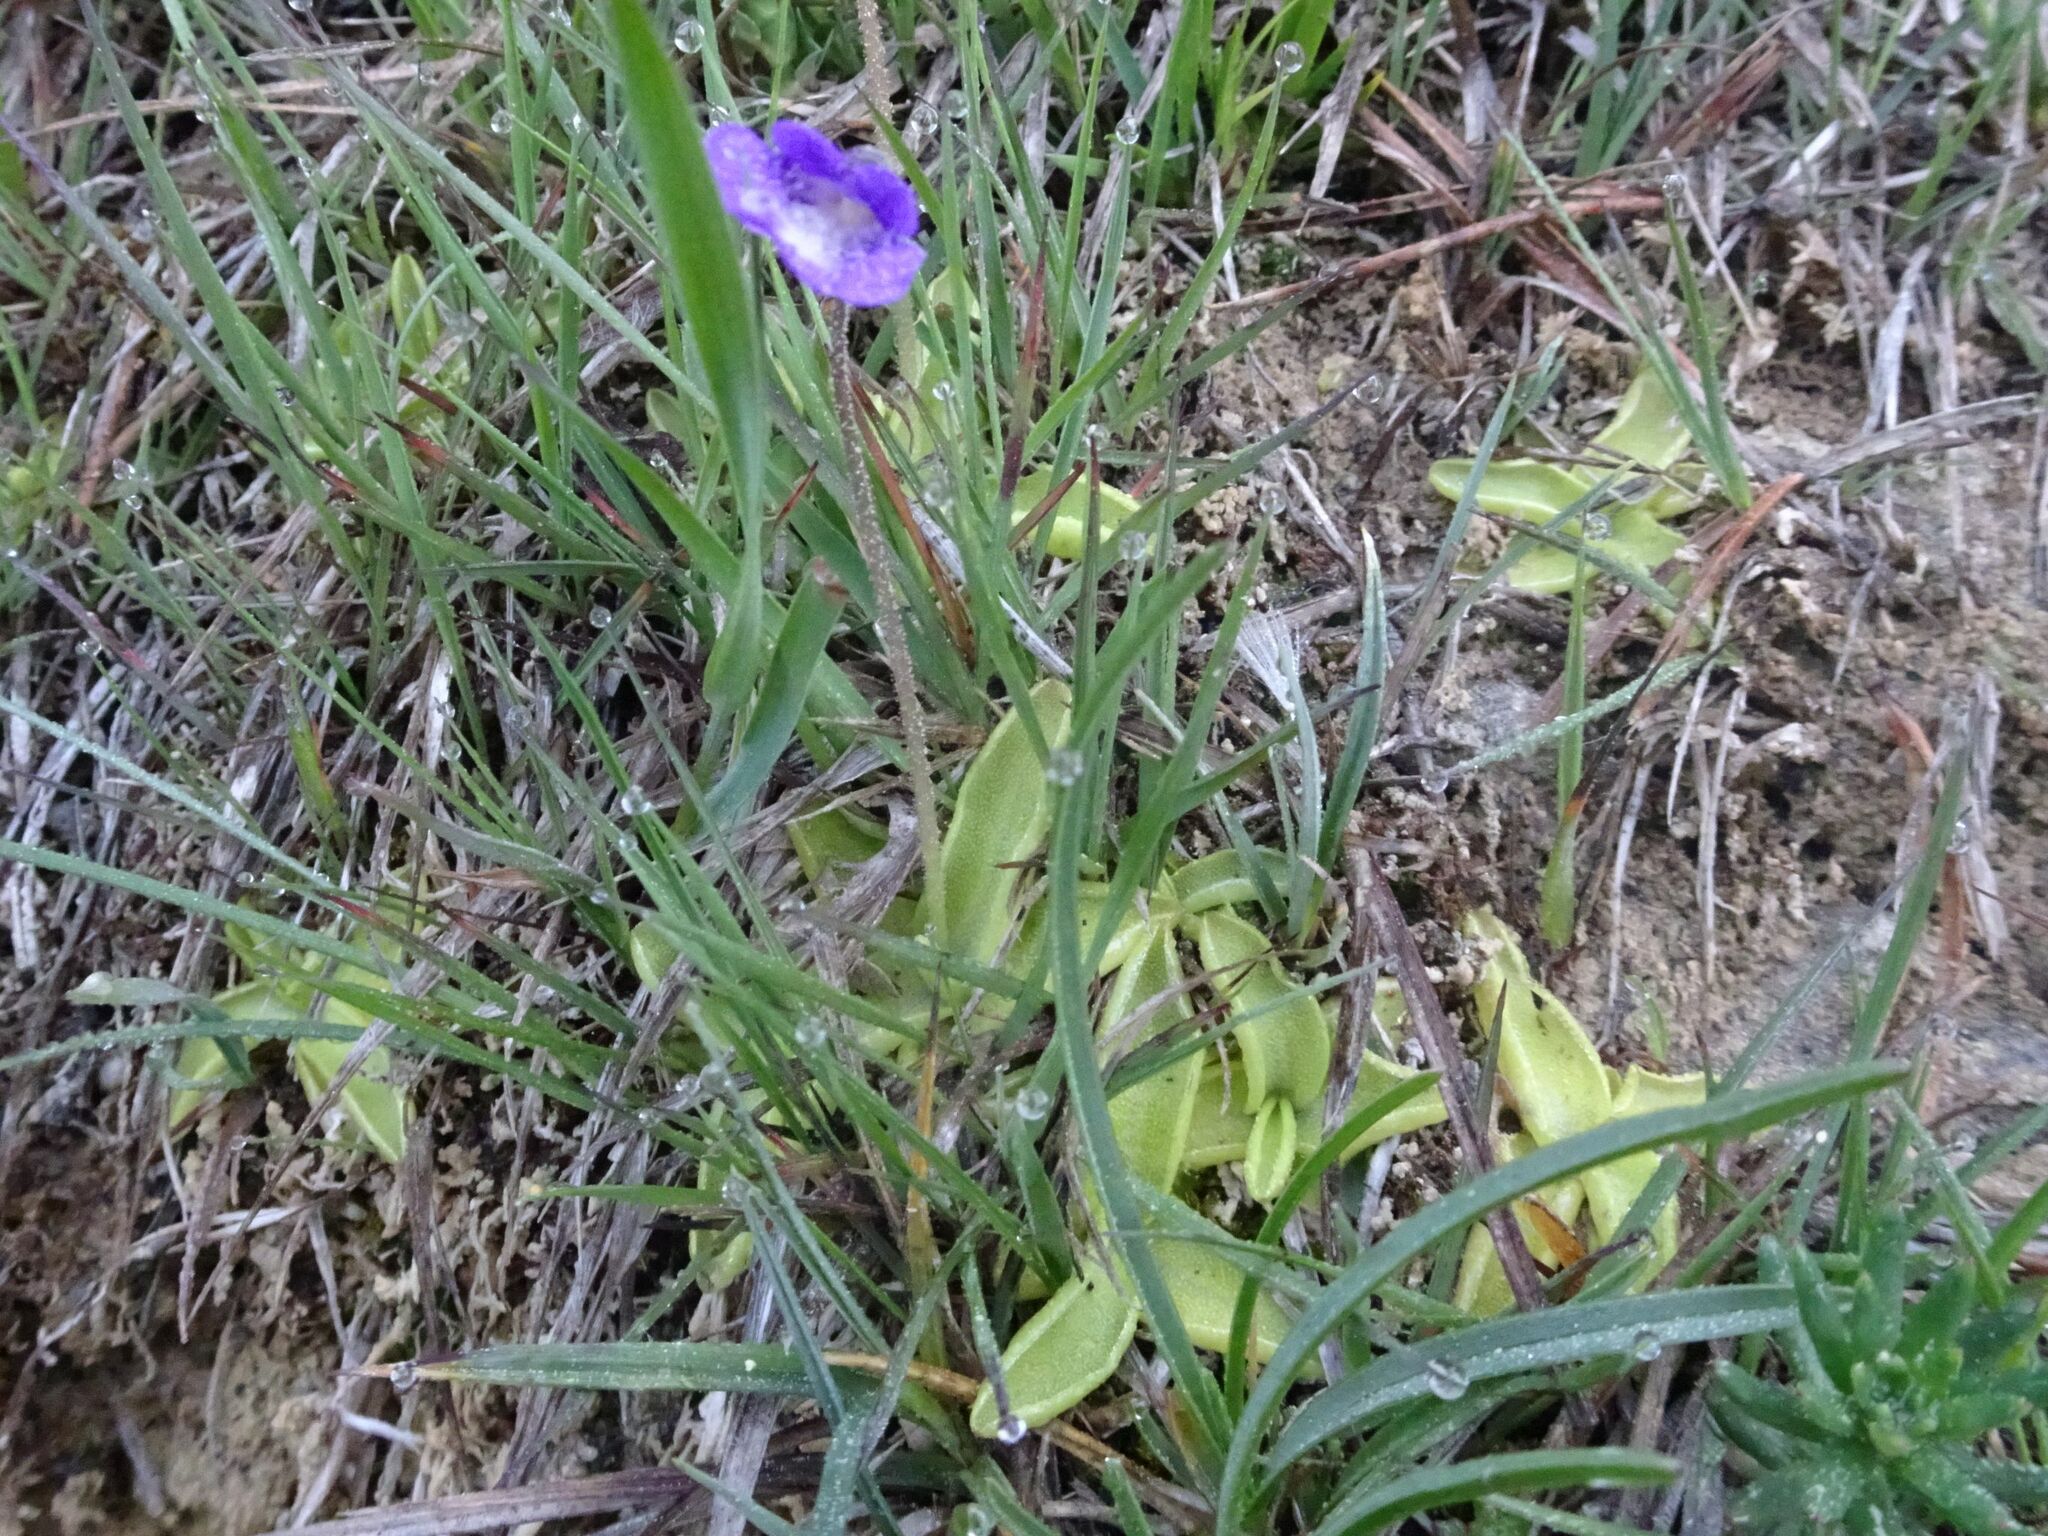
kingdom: Plantae
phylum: Tracheophyta
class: Magnoliopsida
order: Lamiales
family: Lentibulariaceae
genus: Pinguicula
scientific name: Pinguicula vulgaris
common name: Common butterwort
